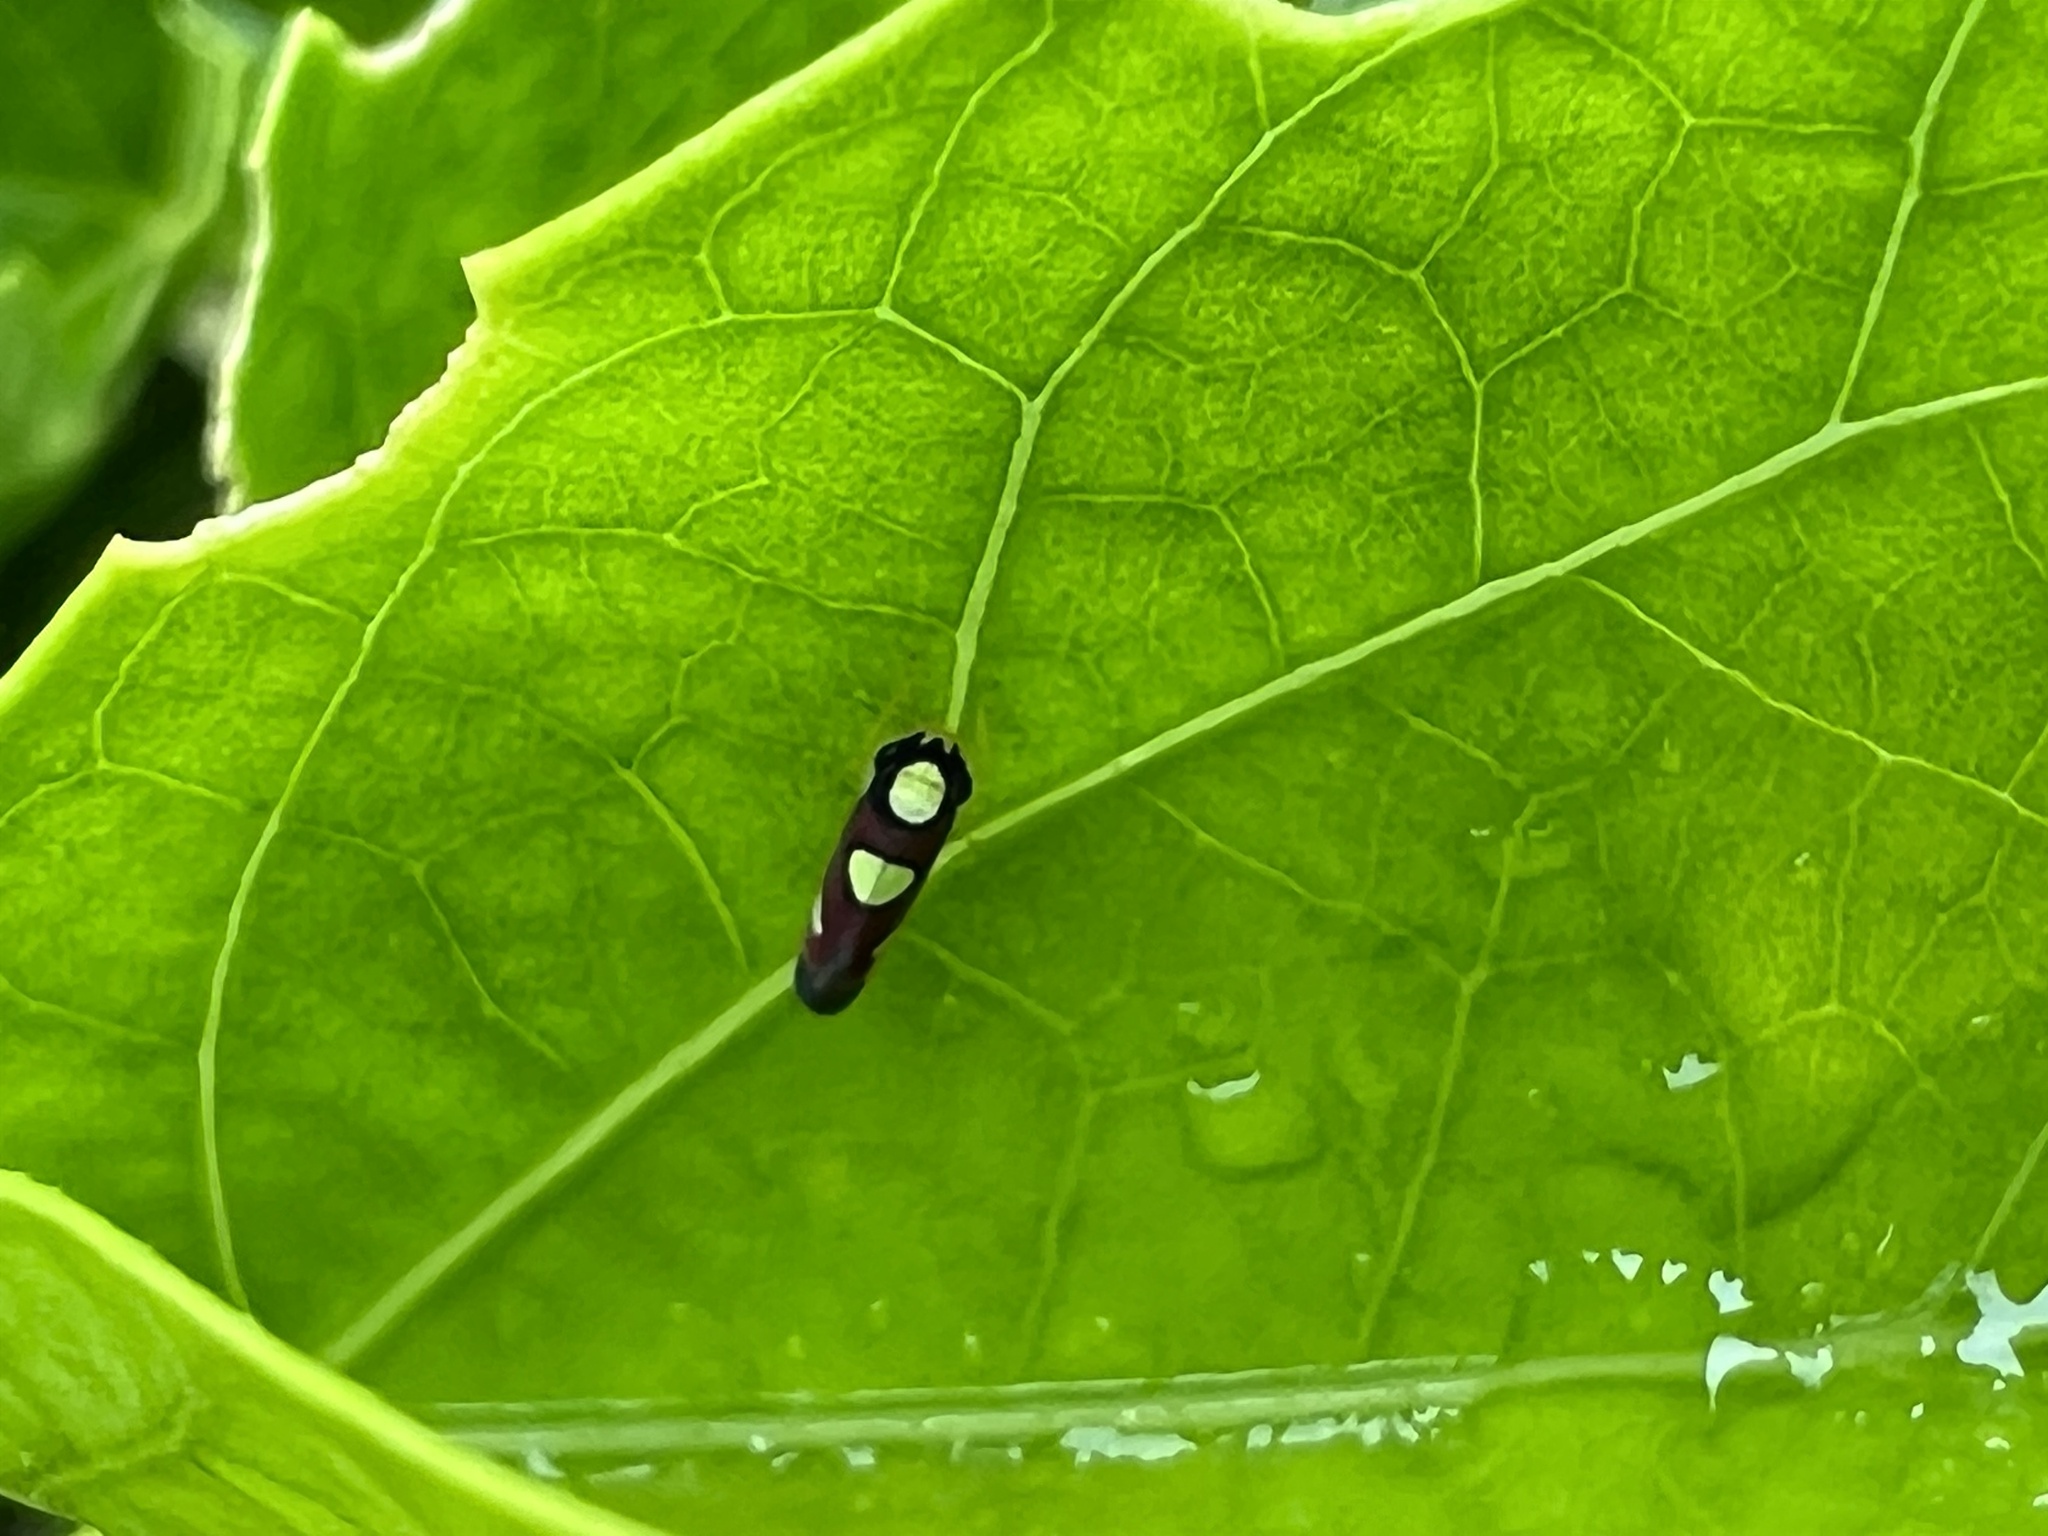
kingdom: Animalia
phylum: Arthropoda
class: Insecta
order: Hemiptera
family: Cicadellidae
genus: Erythrogonia
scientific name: Erythrogonia quadriplagiata
